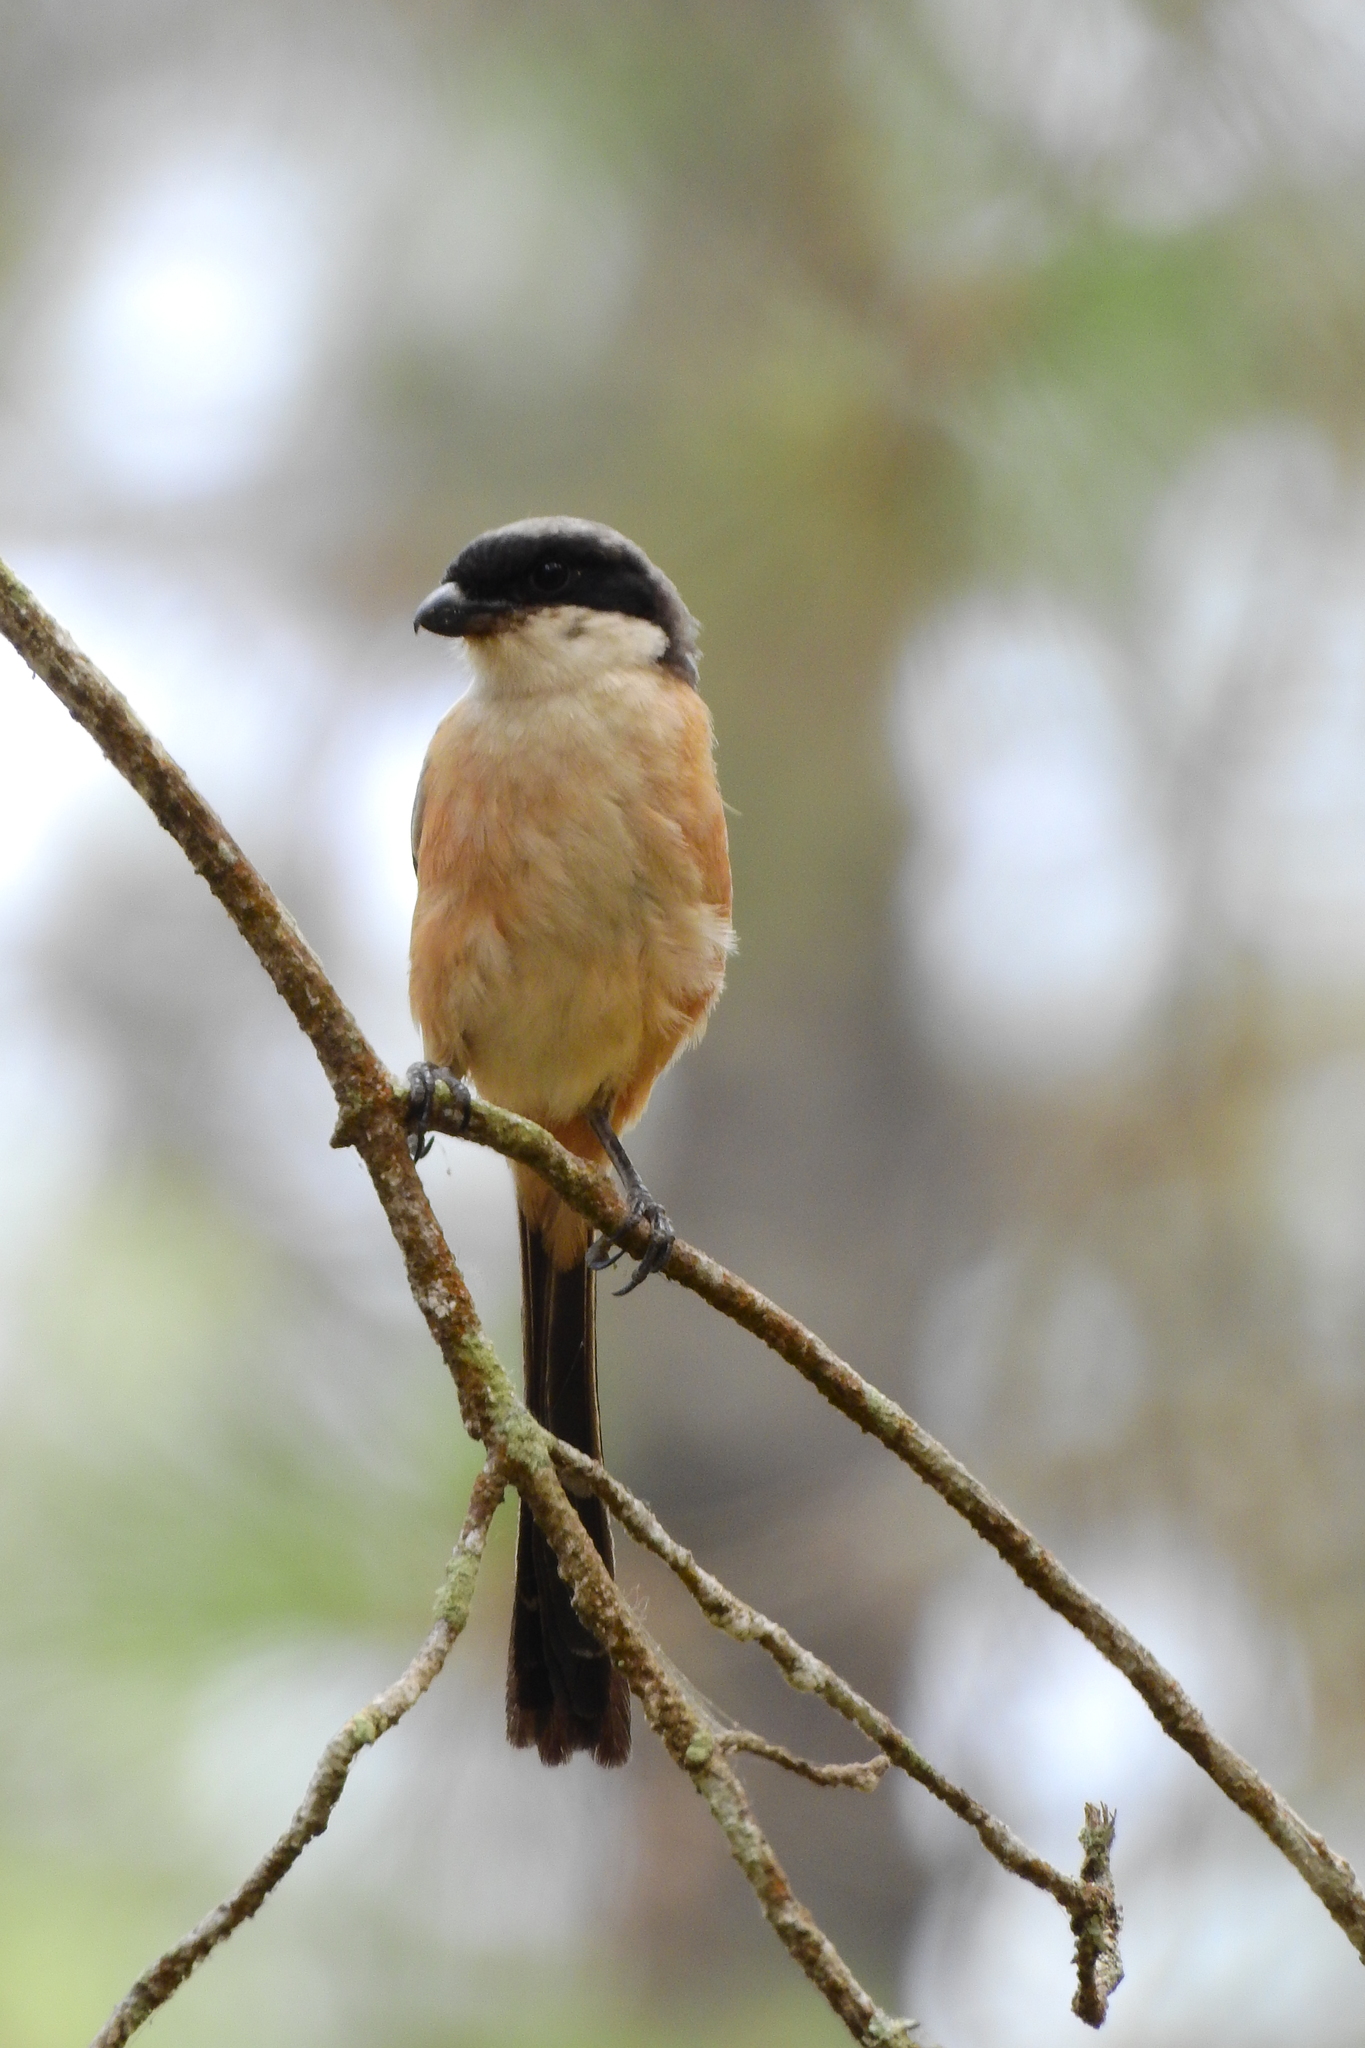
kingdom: Animalia
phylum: Chordata
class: Aves
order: Passeriformes
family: Laniidae
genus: Lanius
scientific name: Lanius schach
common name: Long-tailed shrike
